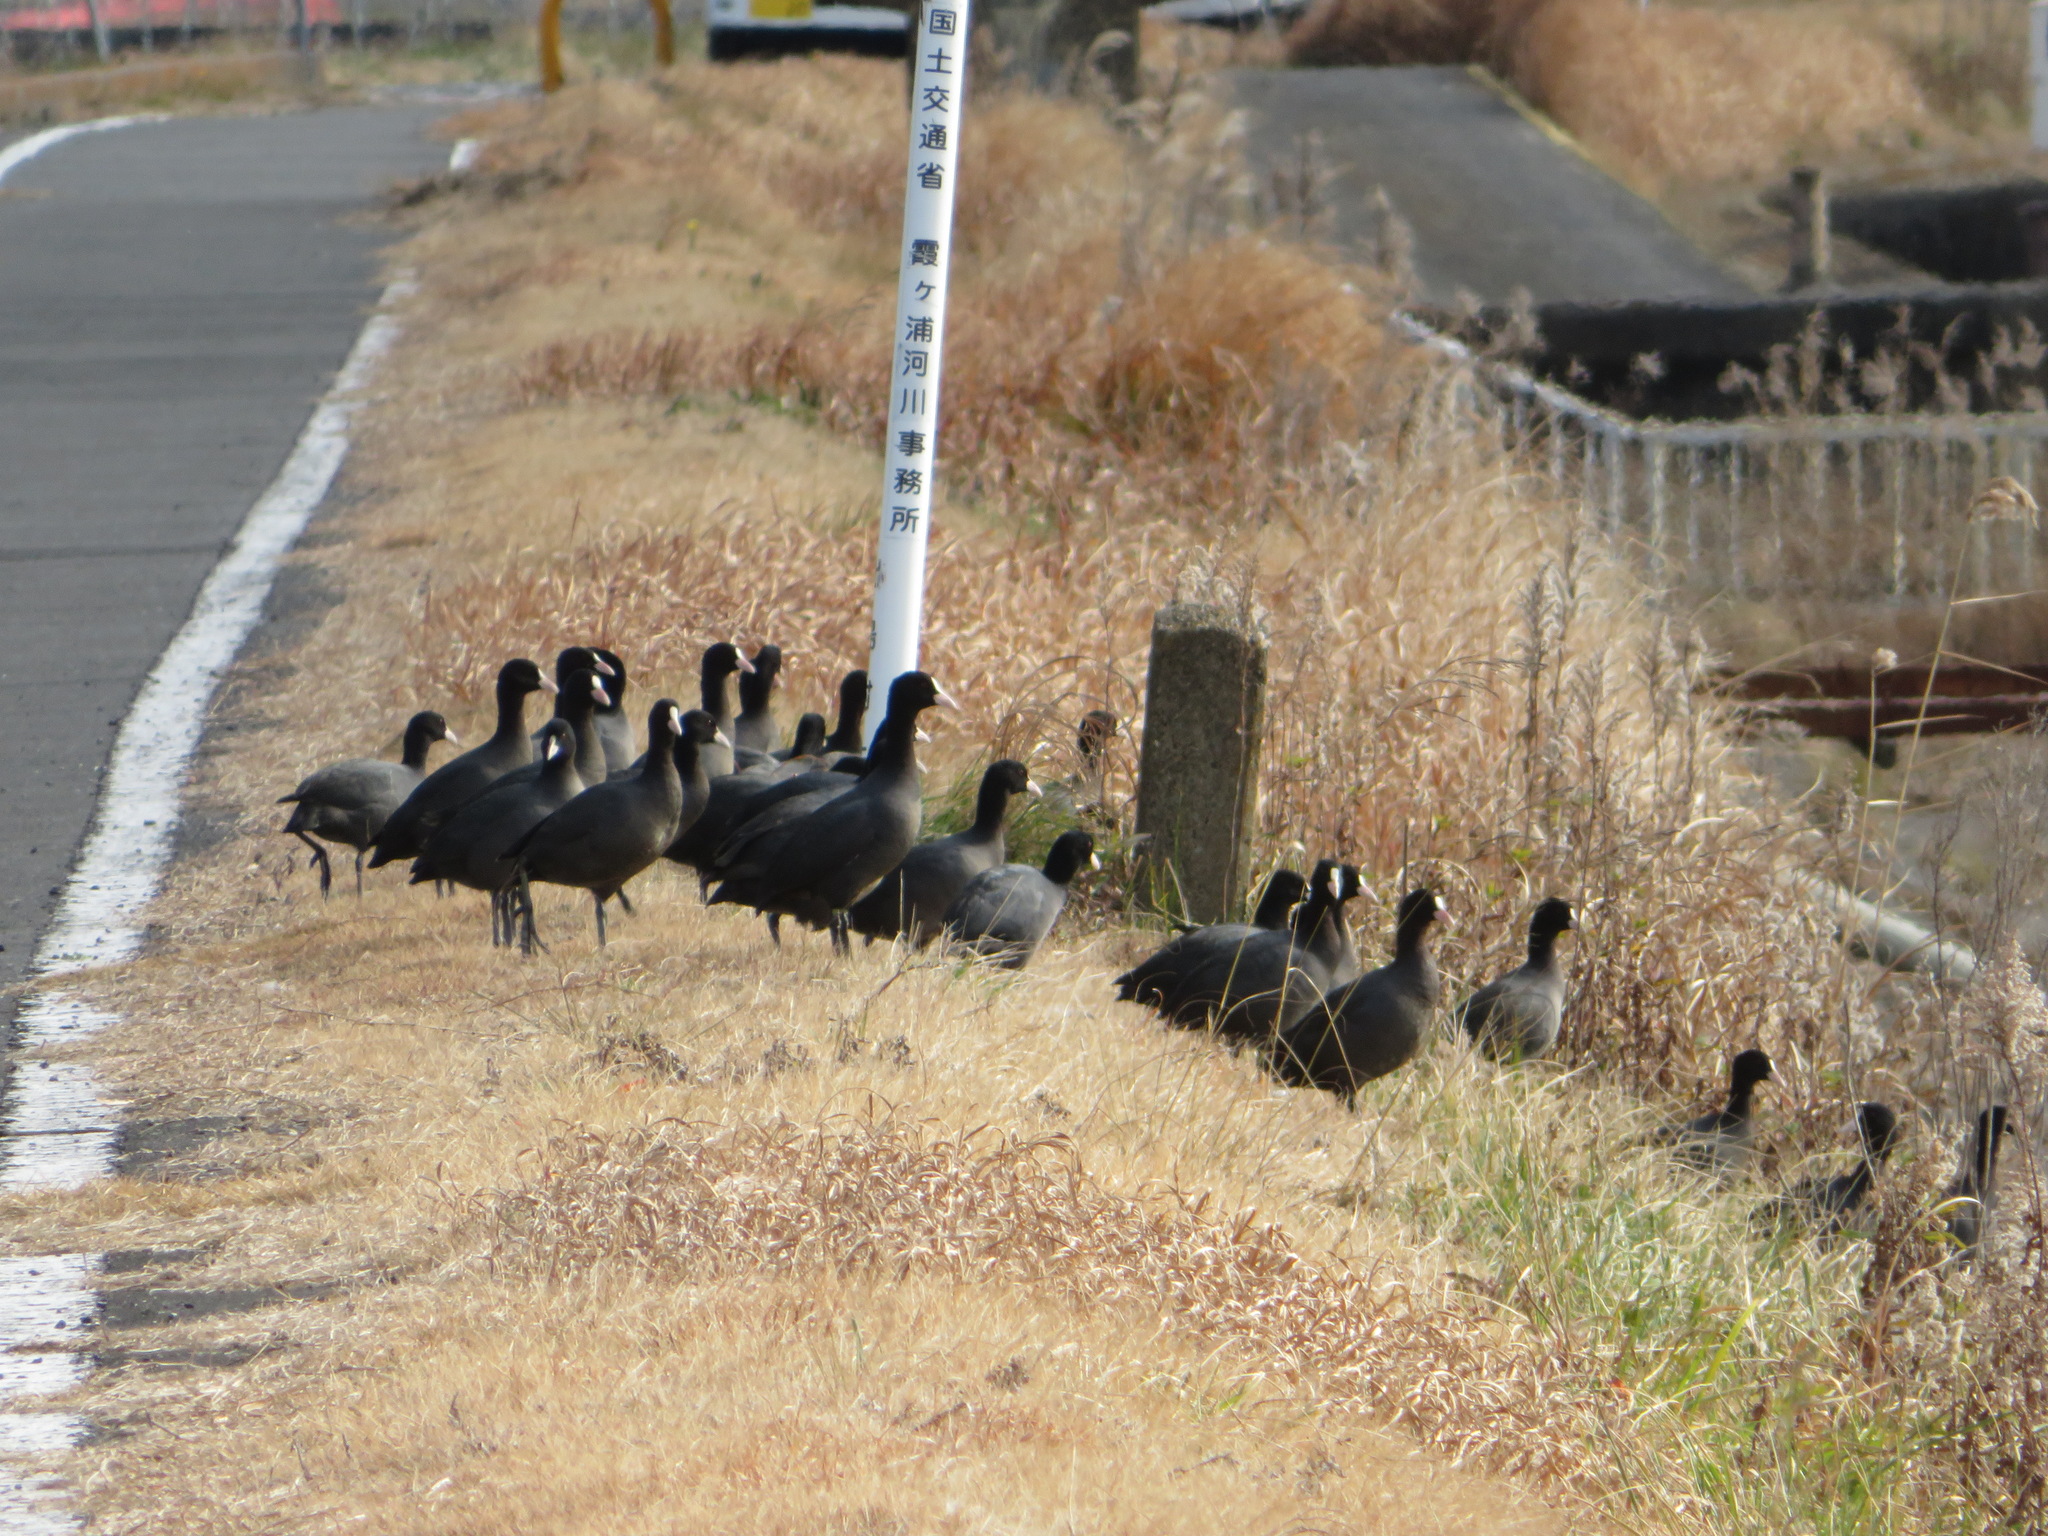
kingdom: Animalia
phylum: Chordata
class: Aves
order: Gruiformes
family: Rallidae
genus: Fulica
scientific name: Fulica atra
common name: Eurasian coot
